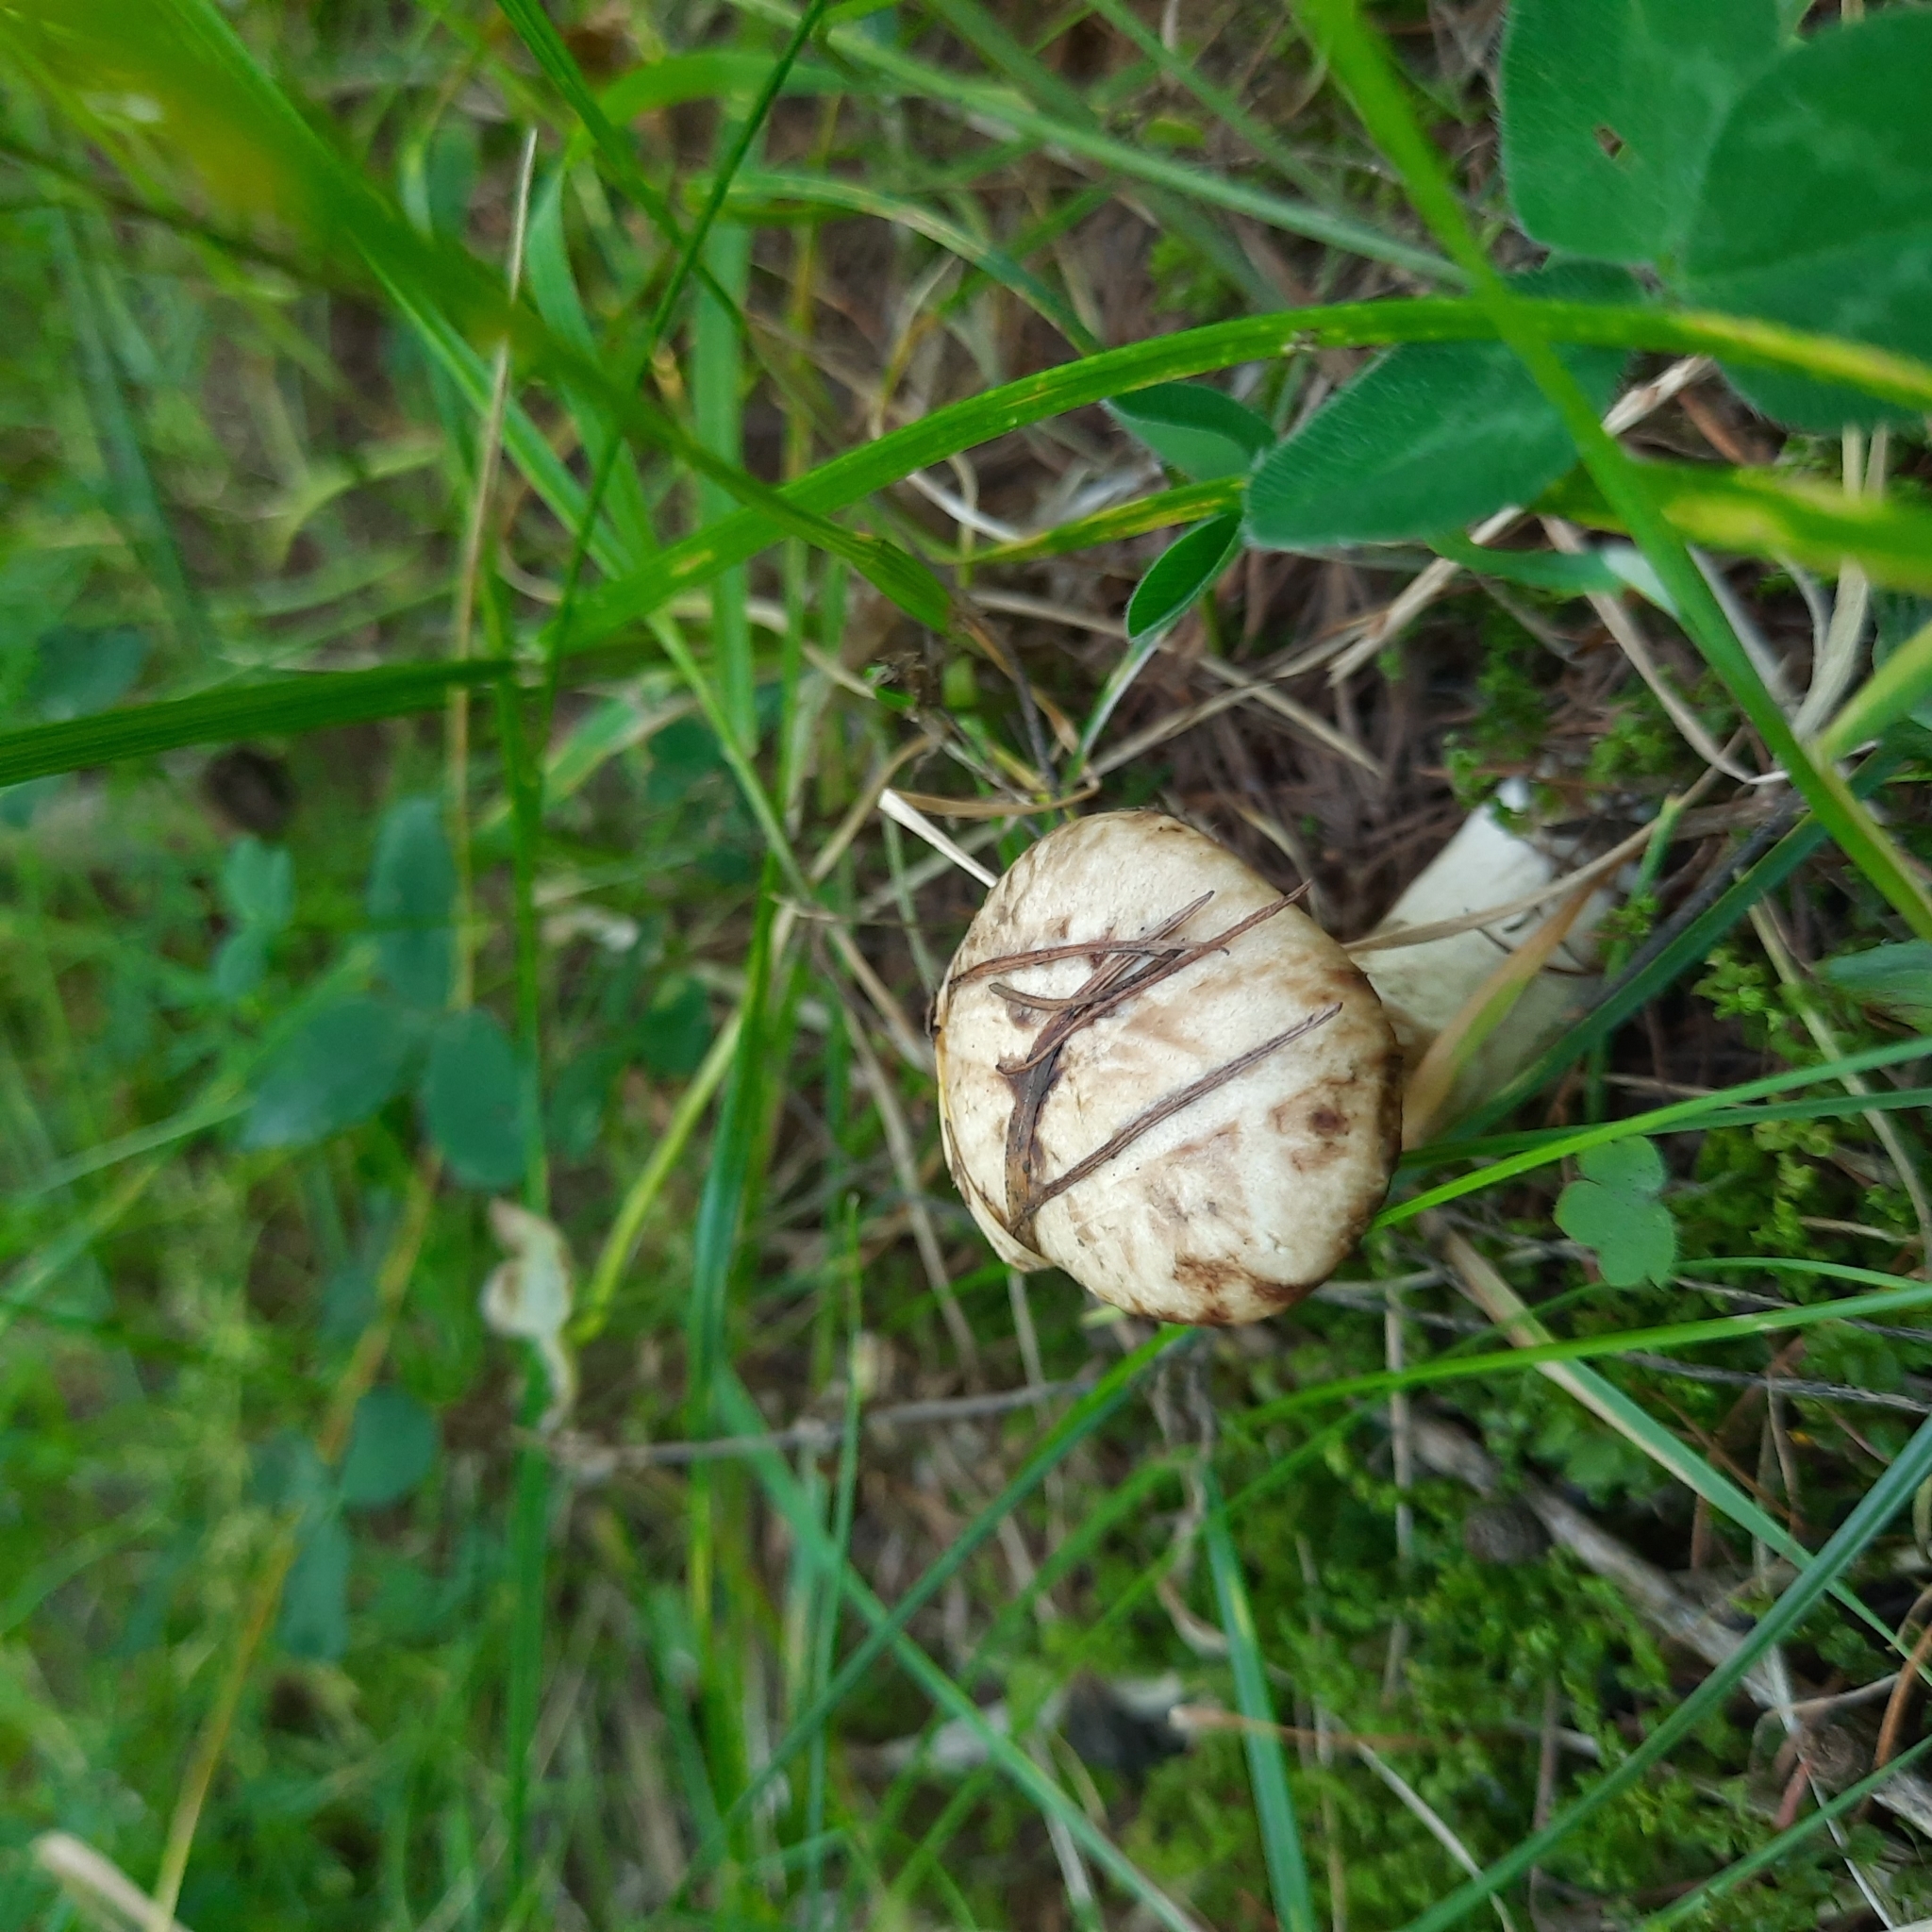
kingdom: Fungi
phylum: Basidiomycota
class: Agaricomycetes
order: Boletales
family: Suillaceae
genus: Suillus
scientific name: Suillus viscidus
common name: Sticky bolete
